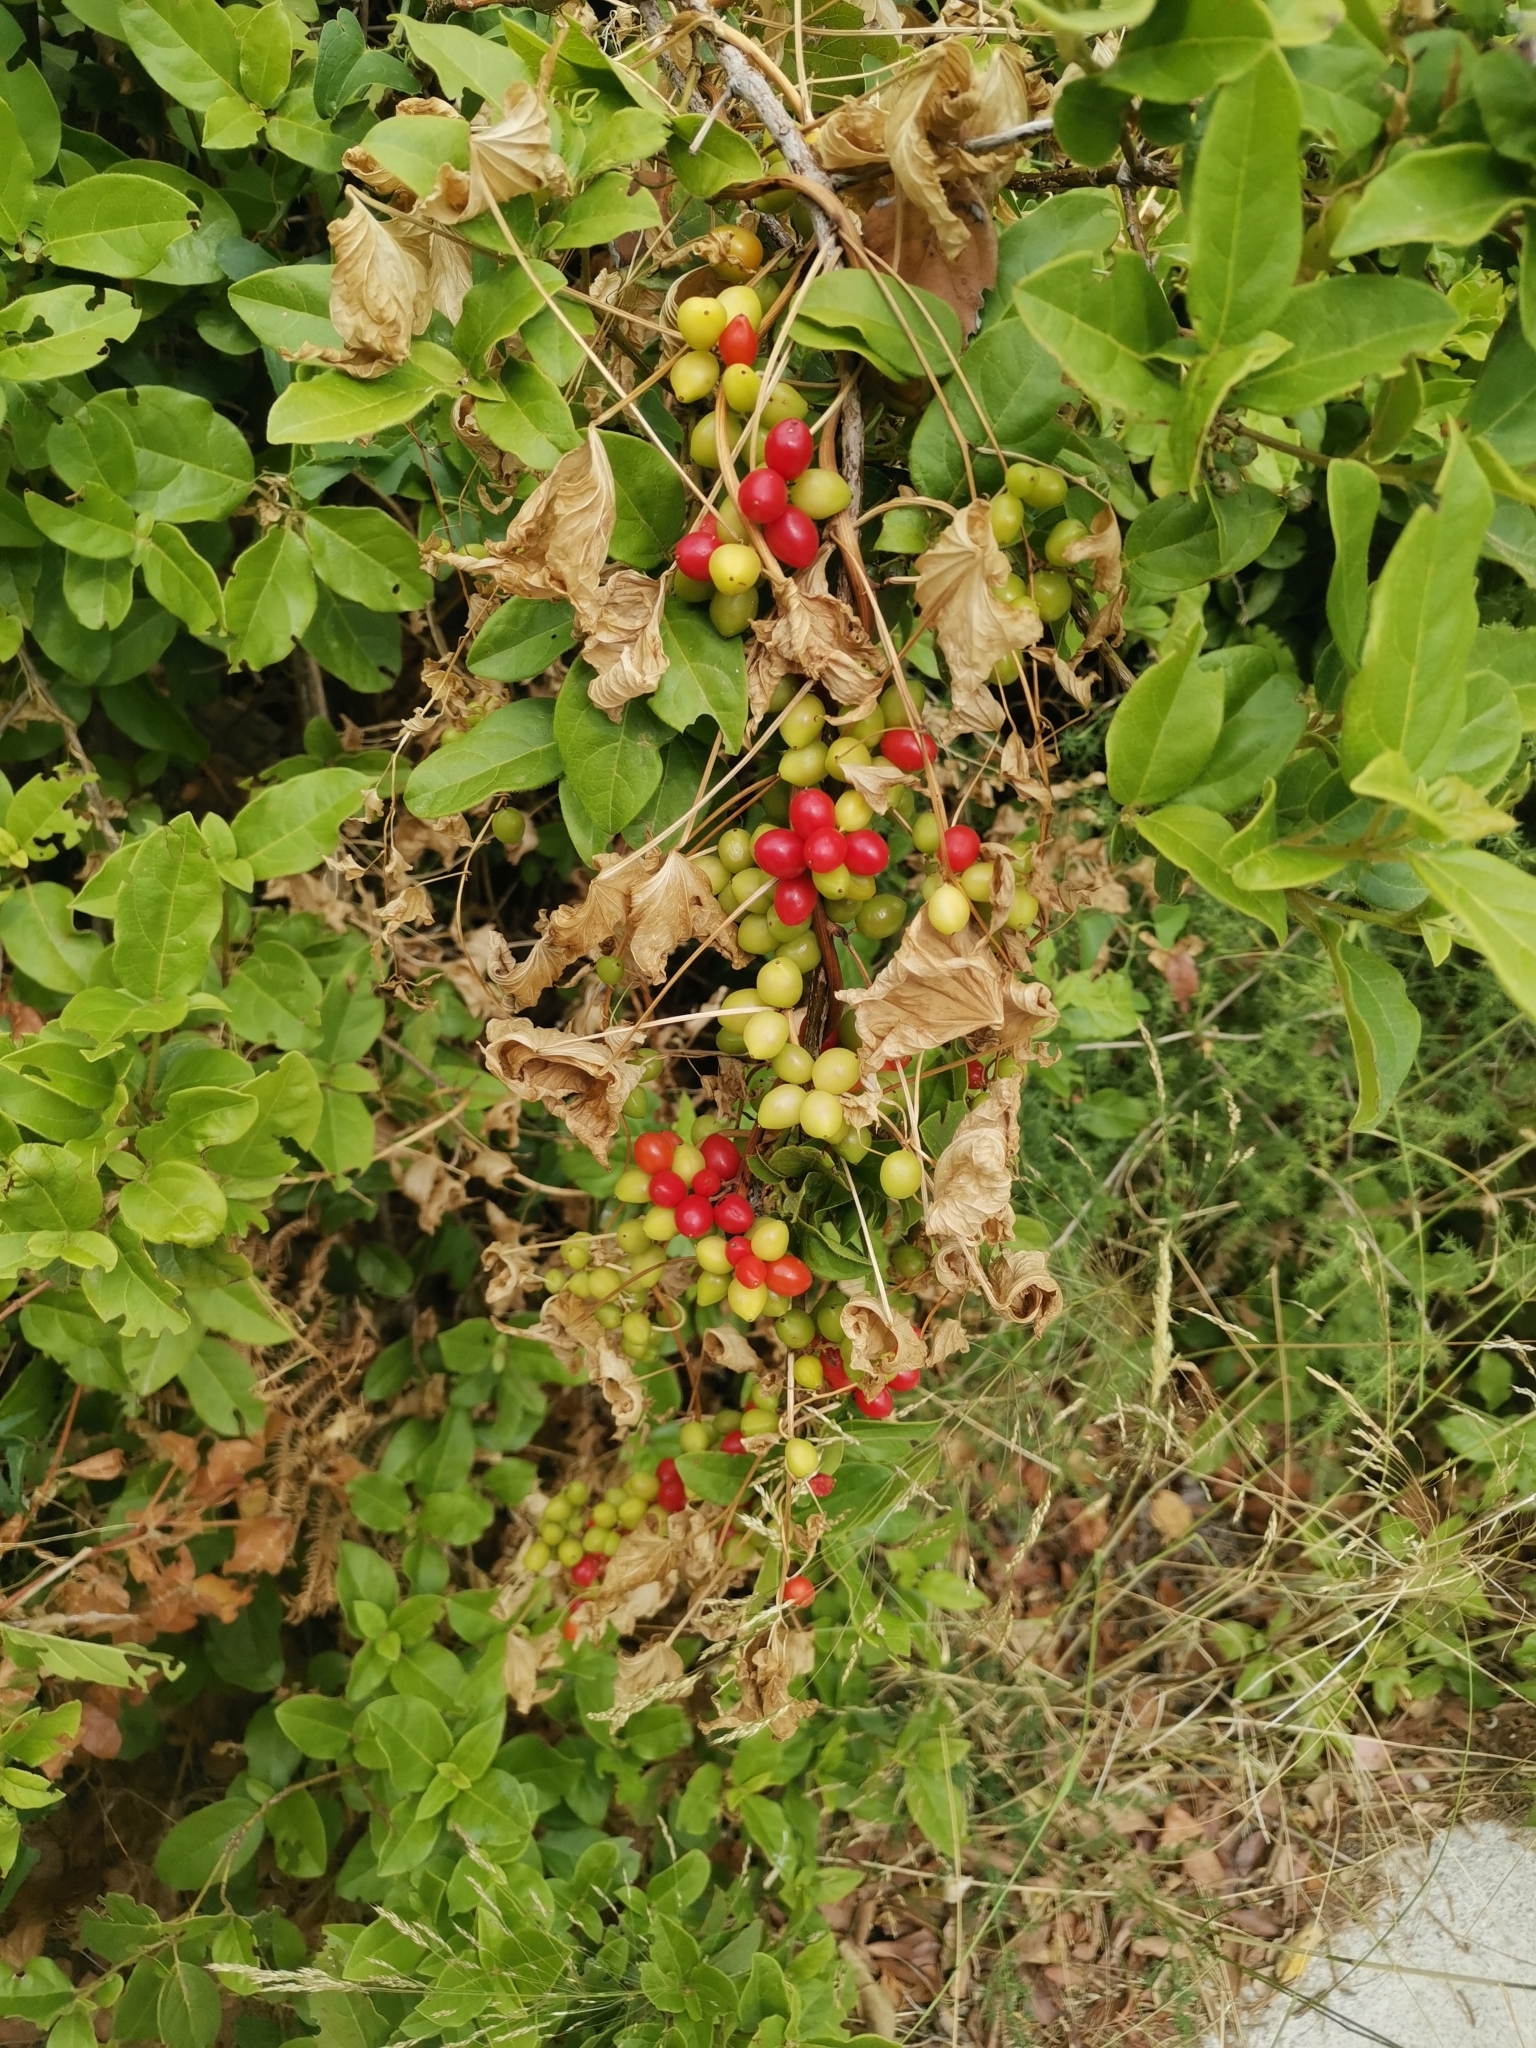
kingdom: Plantae
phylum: Tracheophyta
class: Liliopsida
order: Dioscoreales
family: Dioscoreaceae
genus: Dioscorea
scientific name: Dioscorea communis
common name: Black-bindweed
